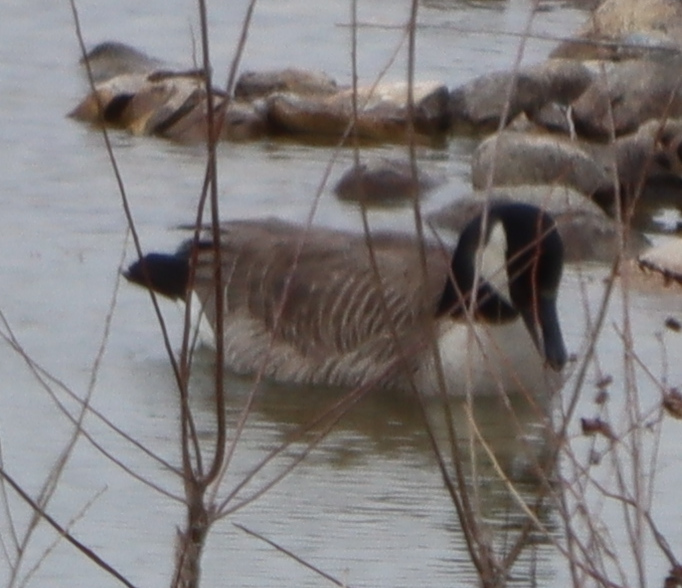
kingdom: Animalia
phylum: Chordata
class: Aves
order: Anseriformes
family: Anatidae
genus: Branta
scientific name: Branta canadensis
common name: Canada goose
